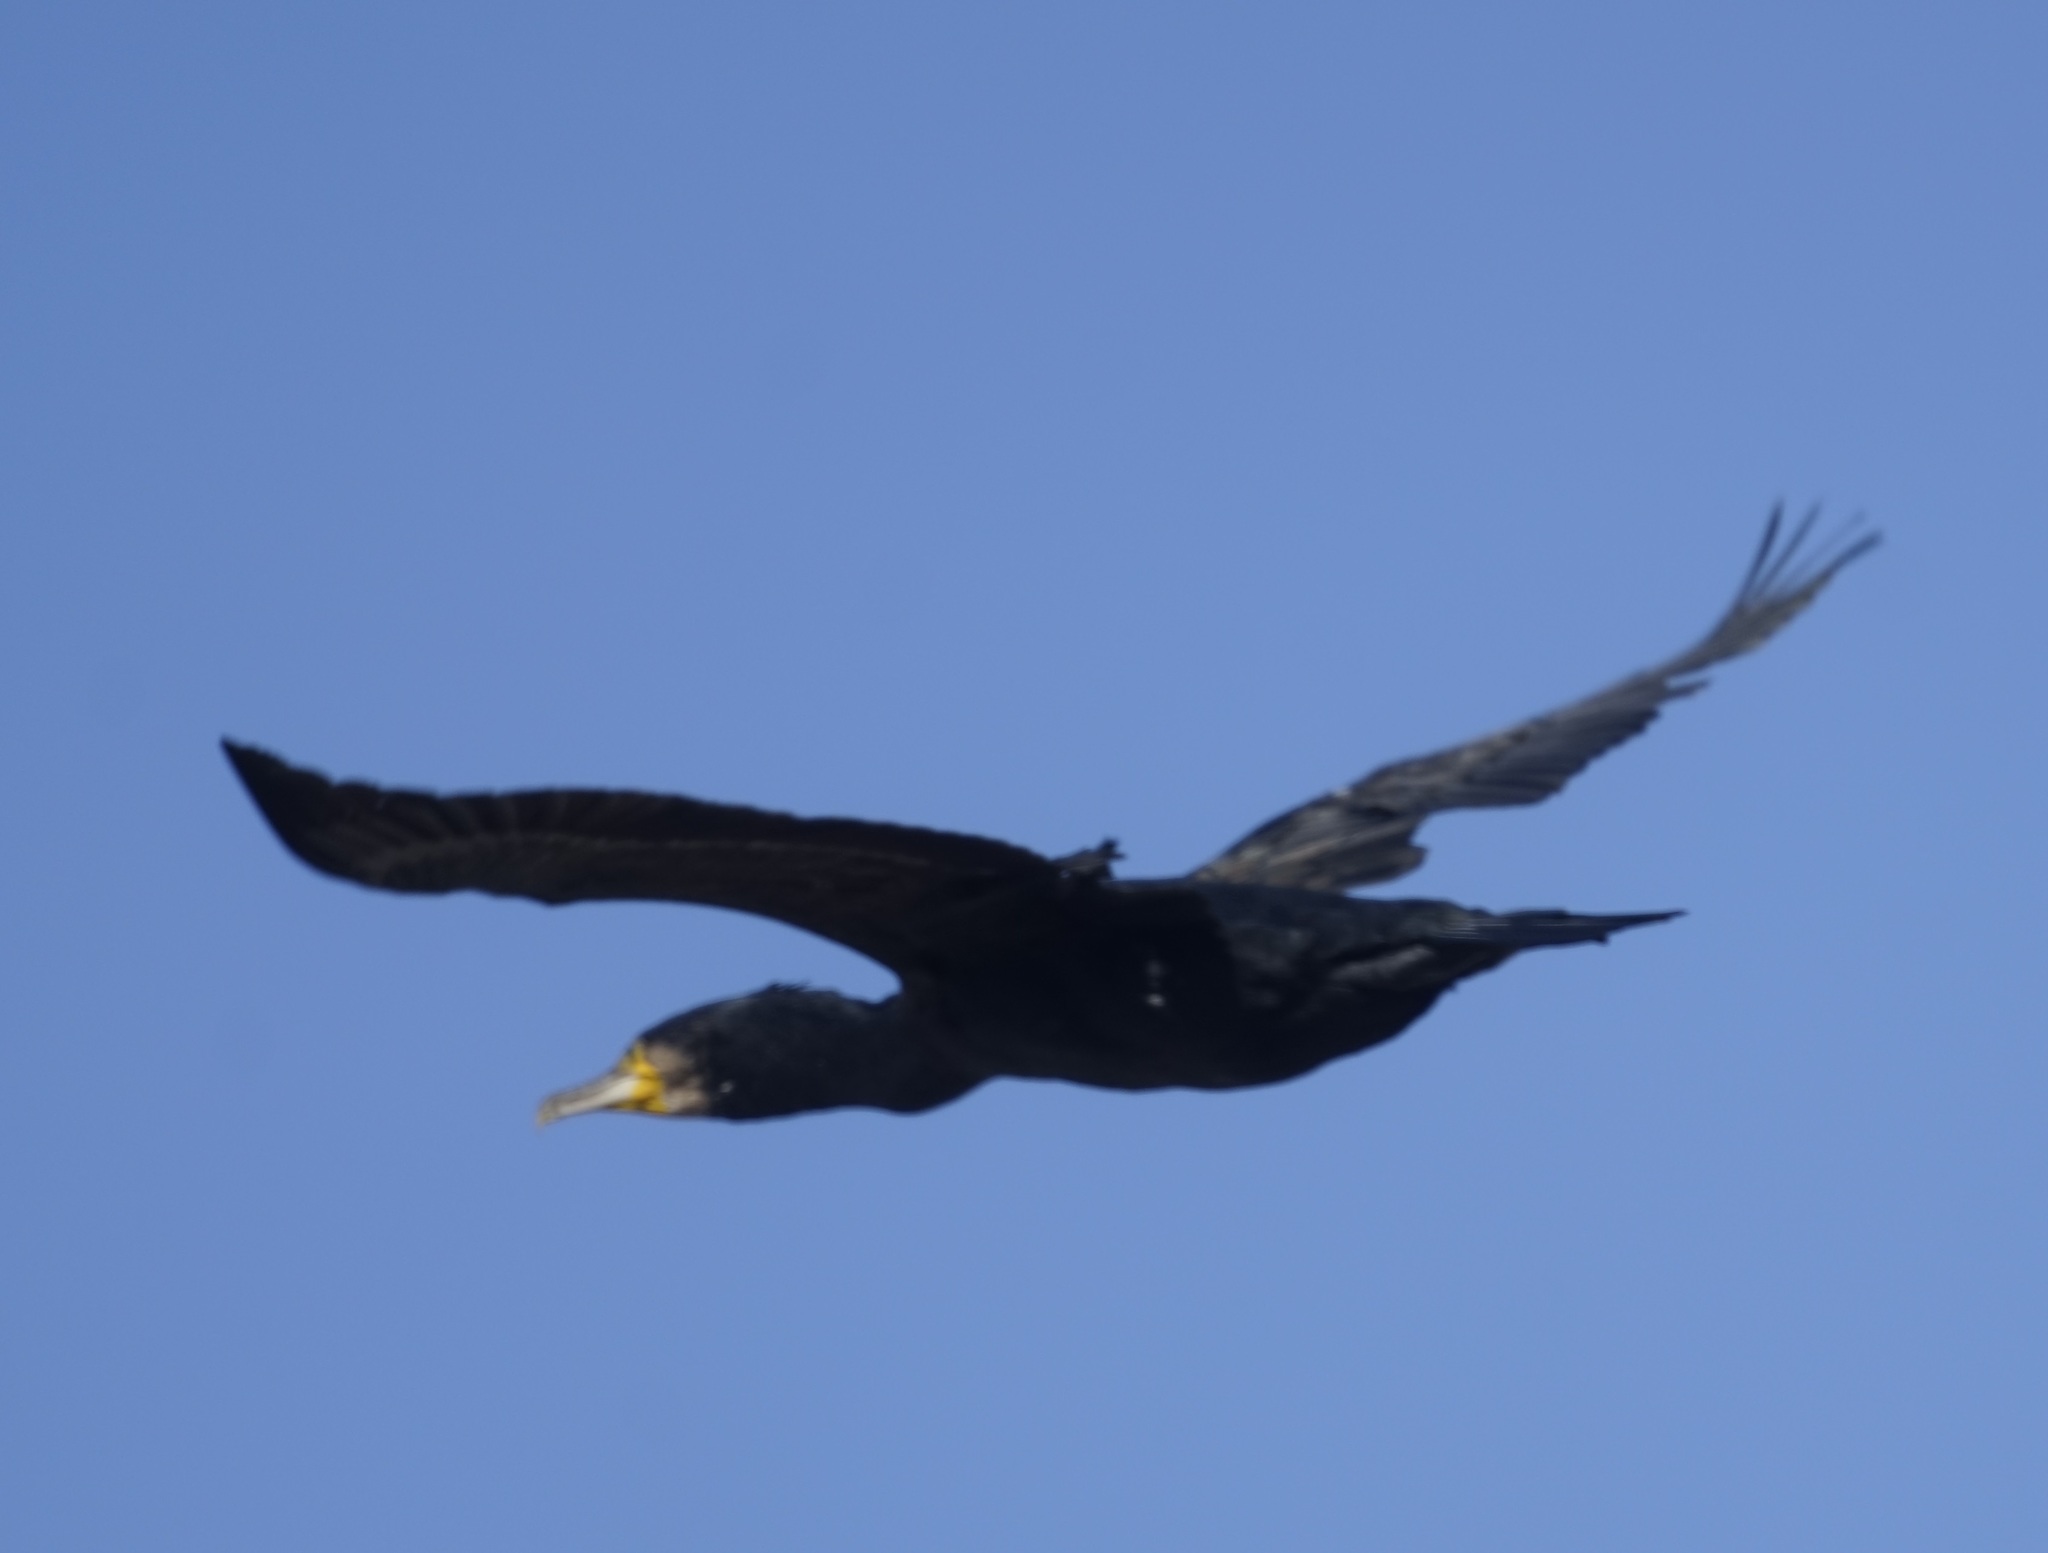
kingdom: Animalia
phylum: Chordata
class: Aves
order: Suliformes
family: Phalacrocoracidae
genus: Phalacrocorax
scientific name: Phalacrocorax carbo
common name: Great cormorant
